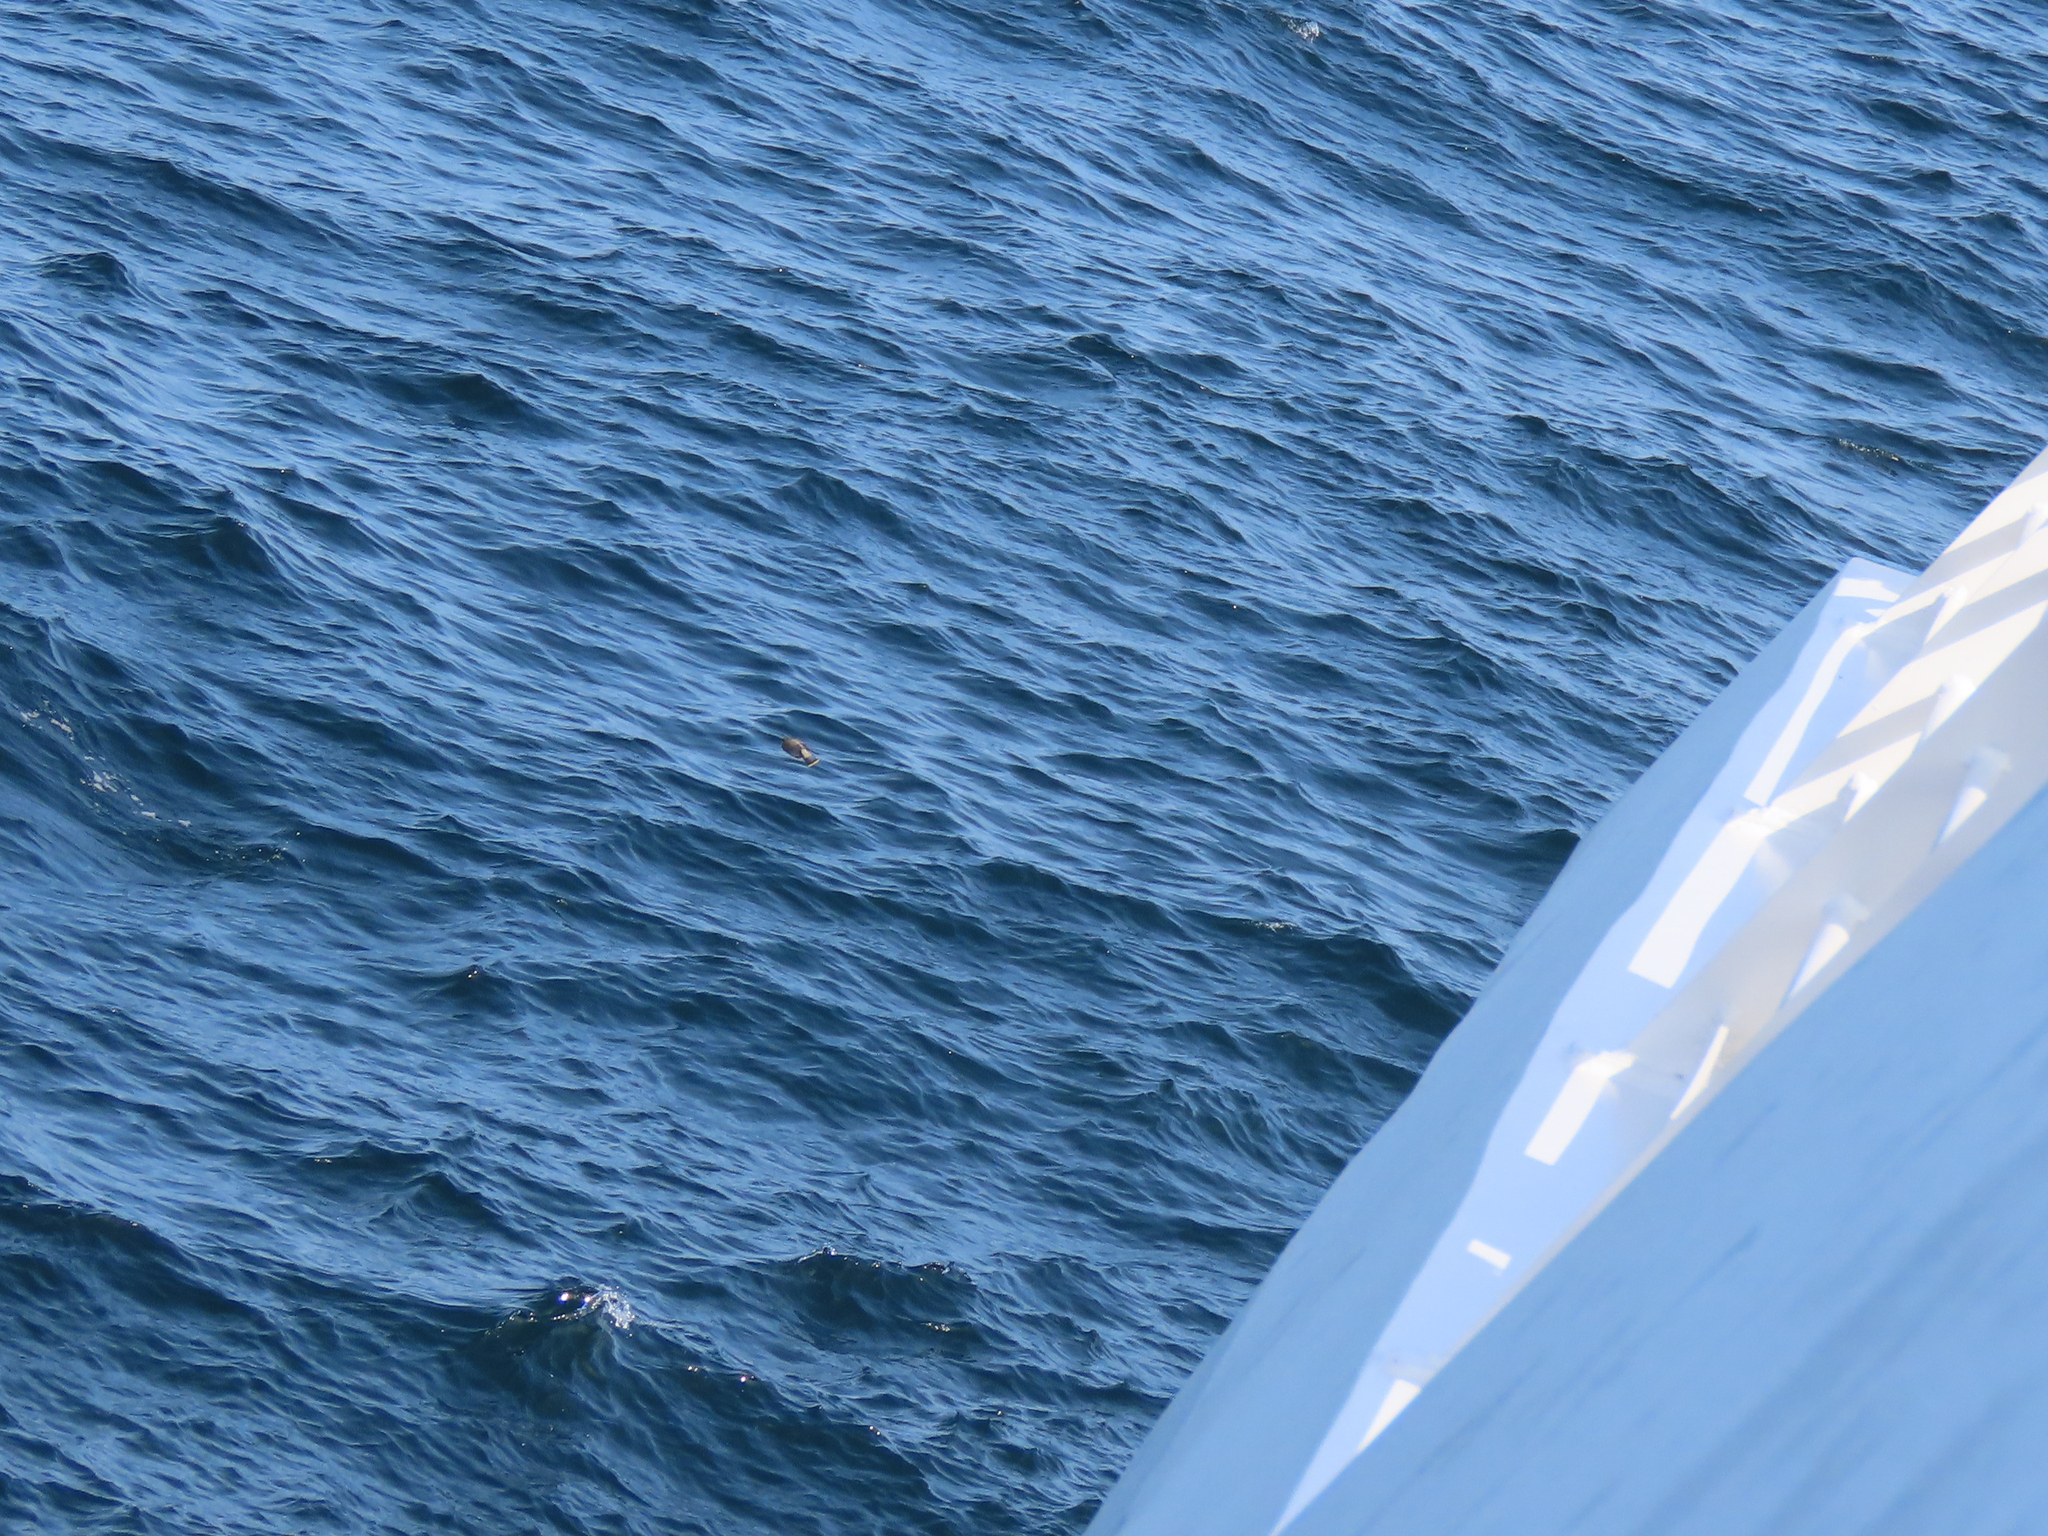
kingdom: Animalia
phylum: Chordata
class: Aves
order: Passeriformes
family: Bombycillidae
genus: Bombycilla
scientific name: Bombycilla cedrorum
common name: Cedar waxwing
